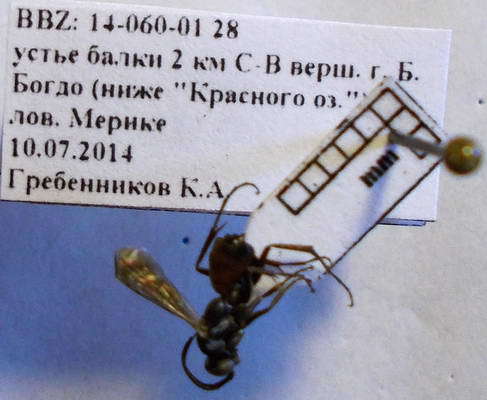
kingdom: Animalia
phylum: Arthropoda
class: Insecta
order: Hymenoptera
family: Pompilidae
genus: Tachyagetes
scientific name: Tachyagetes filicornis
